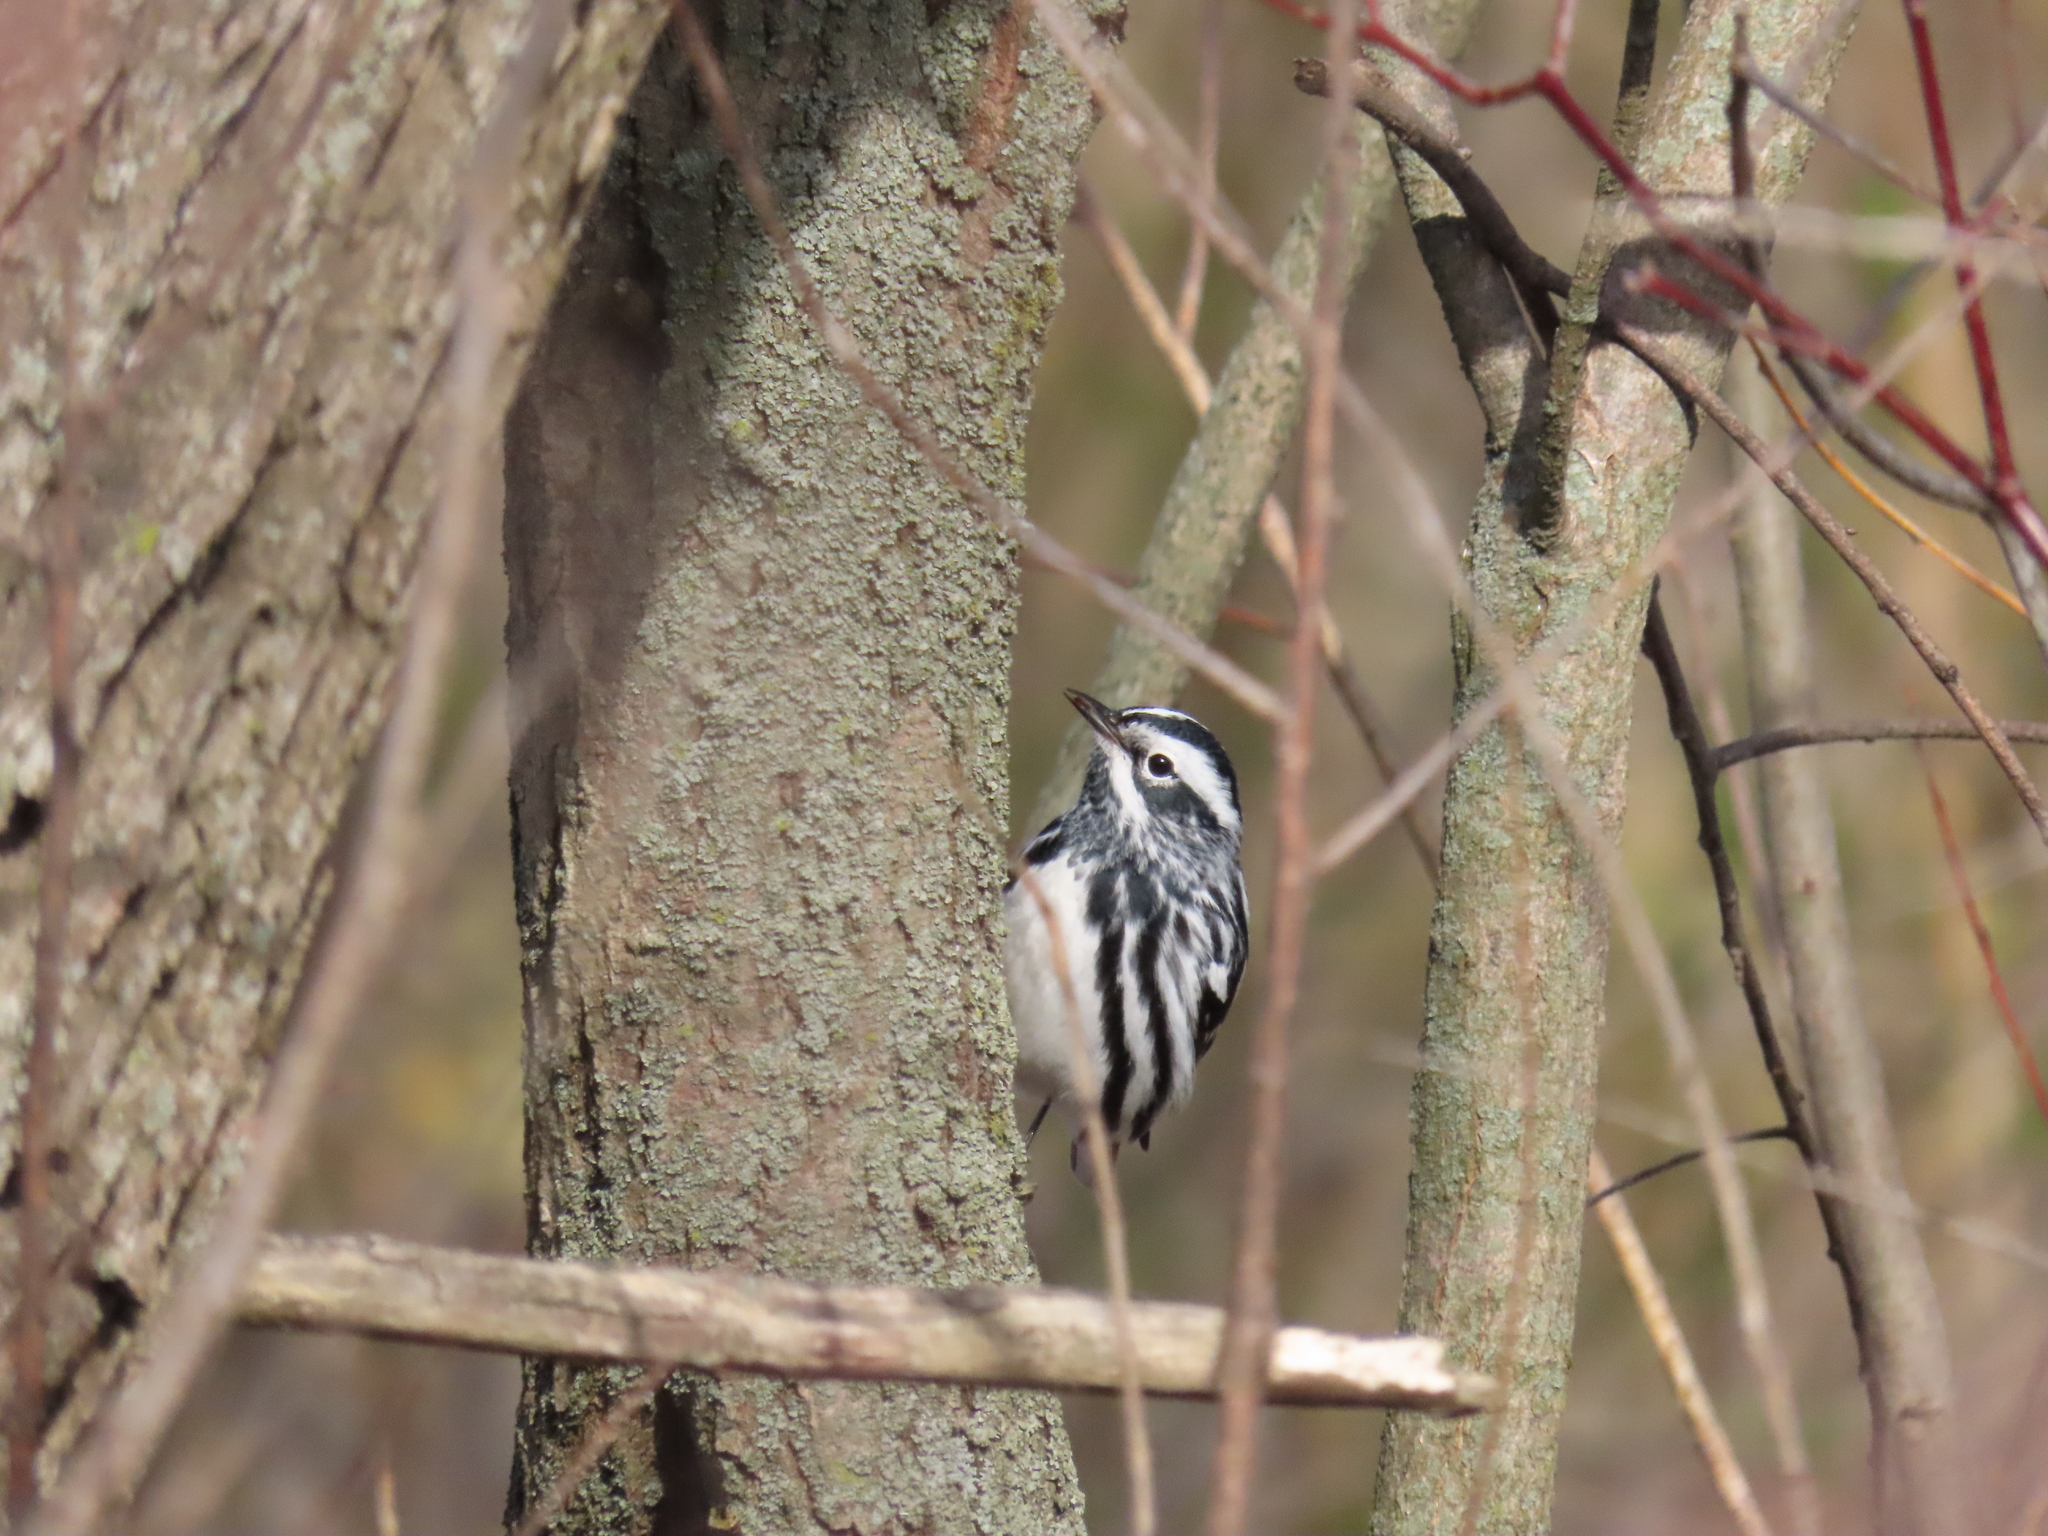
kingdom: Animalia
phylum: Chordata
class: Aves
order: Passeriformes
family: Parulidae
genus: Mniotilta
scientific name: Mniotilta varia
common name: Black-and-white warbler
